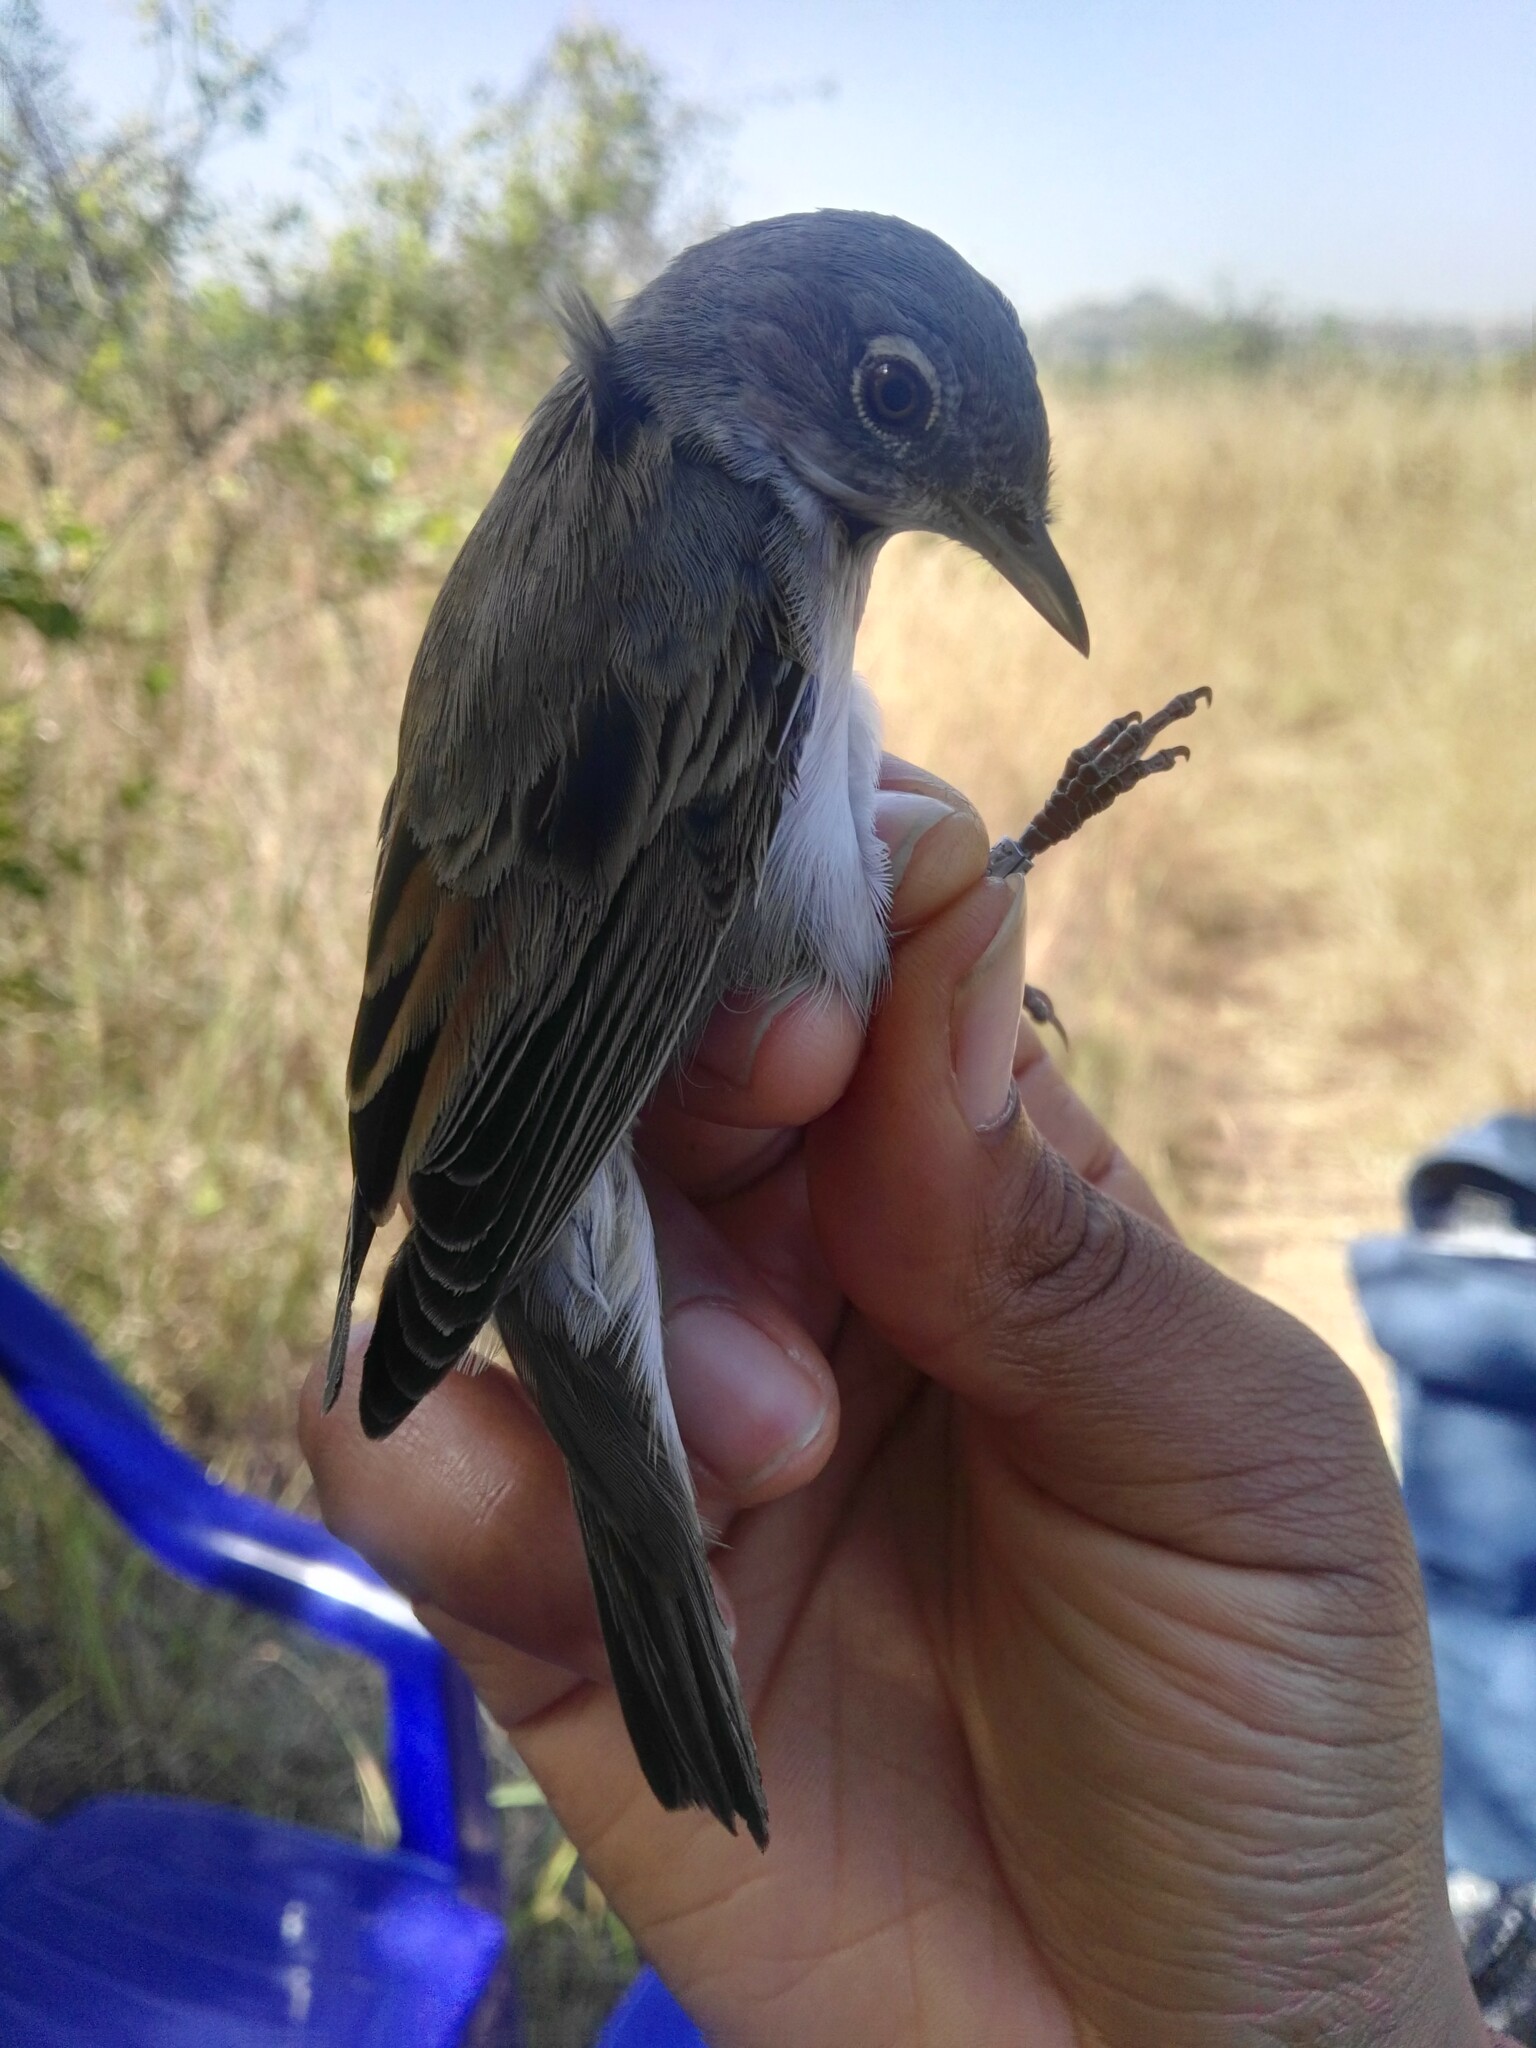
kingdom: Animalia
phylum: Chordata
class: Aves
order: Passeriformes
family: Sylviidae
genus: Sylvia
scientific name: Sylvia communis
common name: Common whitethroat
